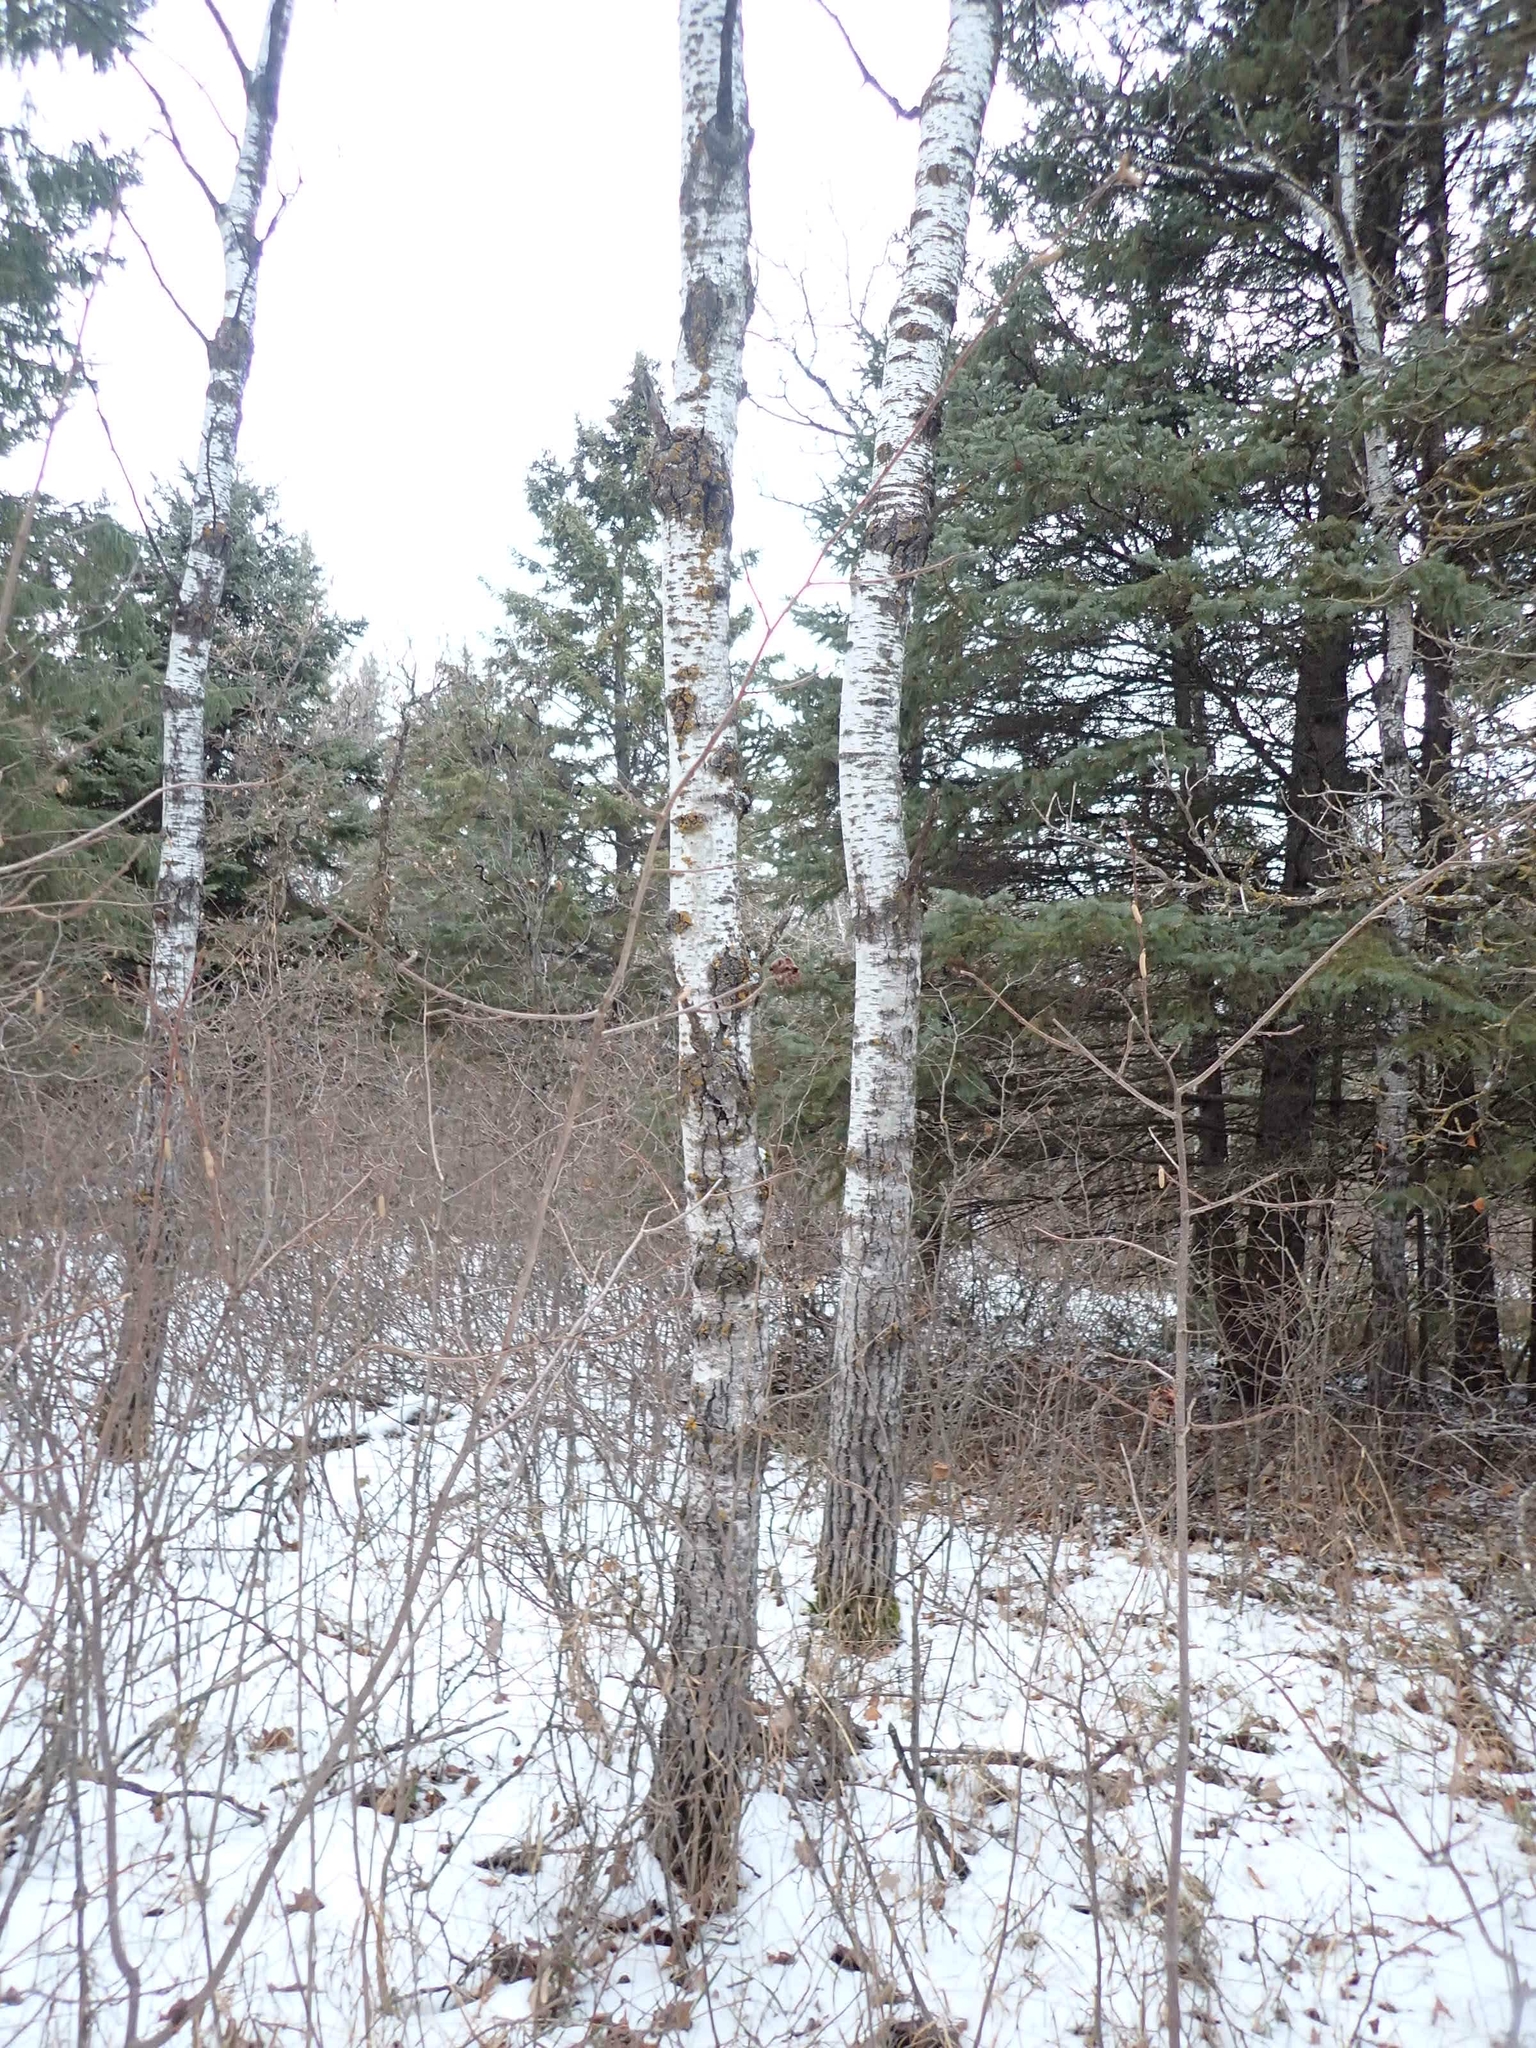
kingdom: Plantae
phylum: Tracheophyta
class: Magnoliopsida
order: Malpighiales
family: Salicaceae
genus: Populus
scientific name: Populus tremuloides
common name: Quaking aspen
